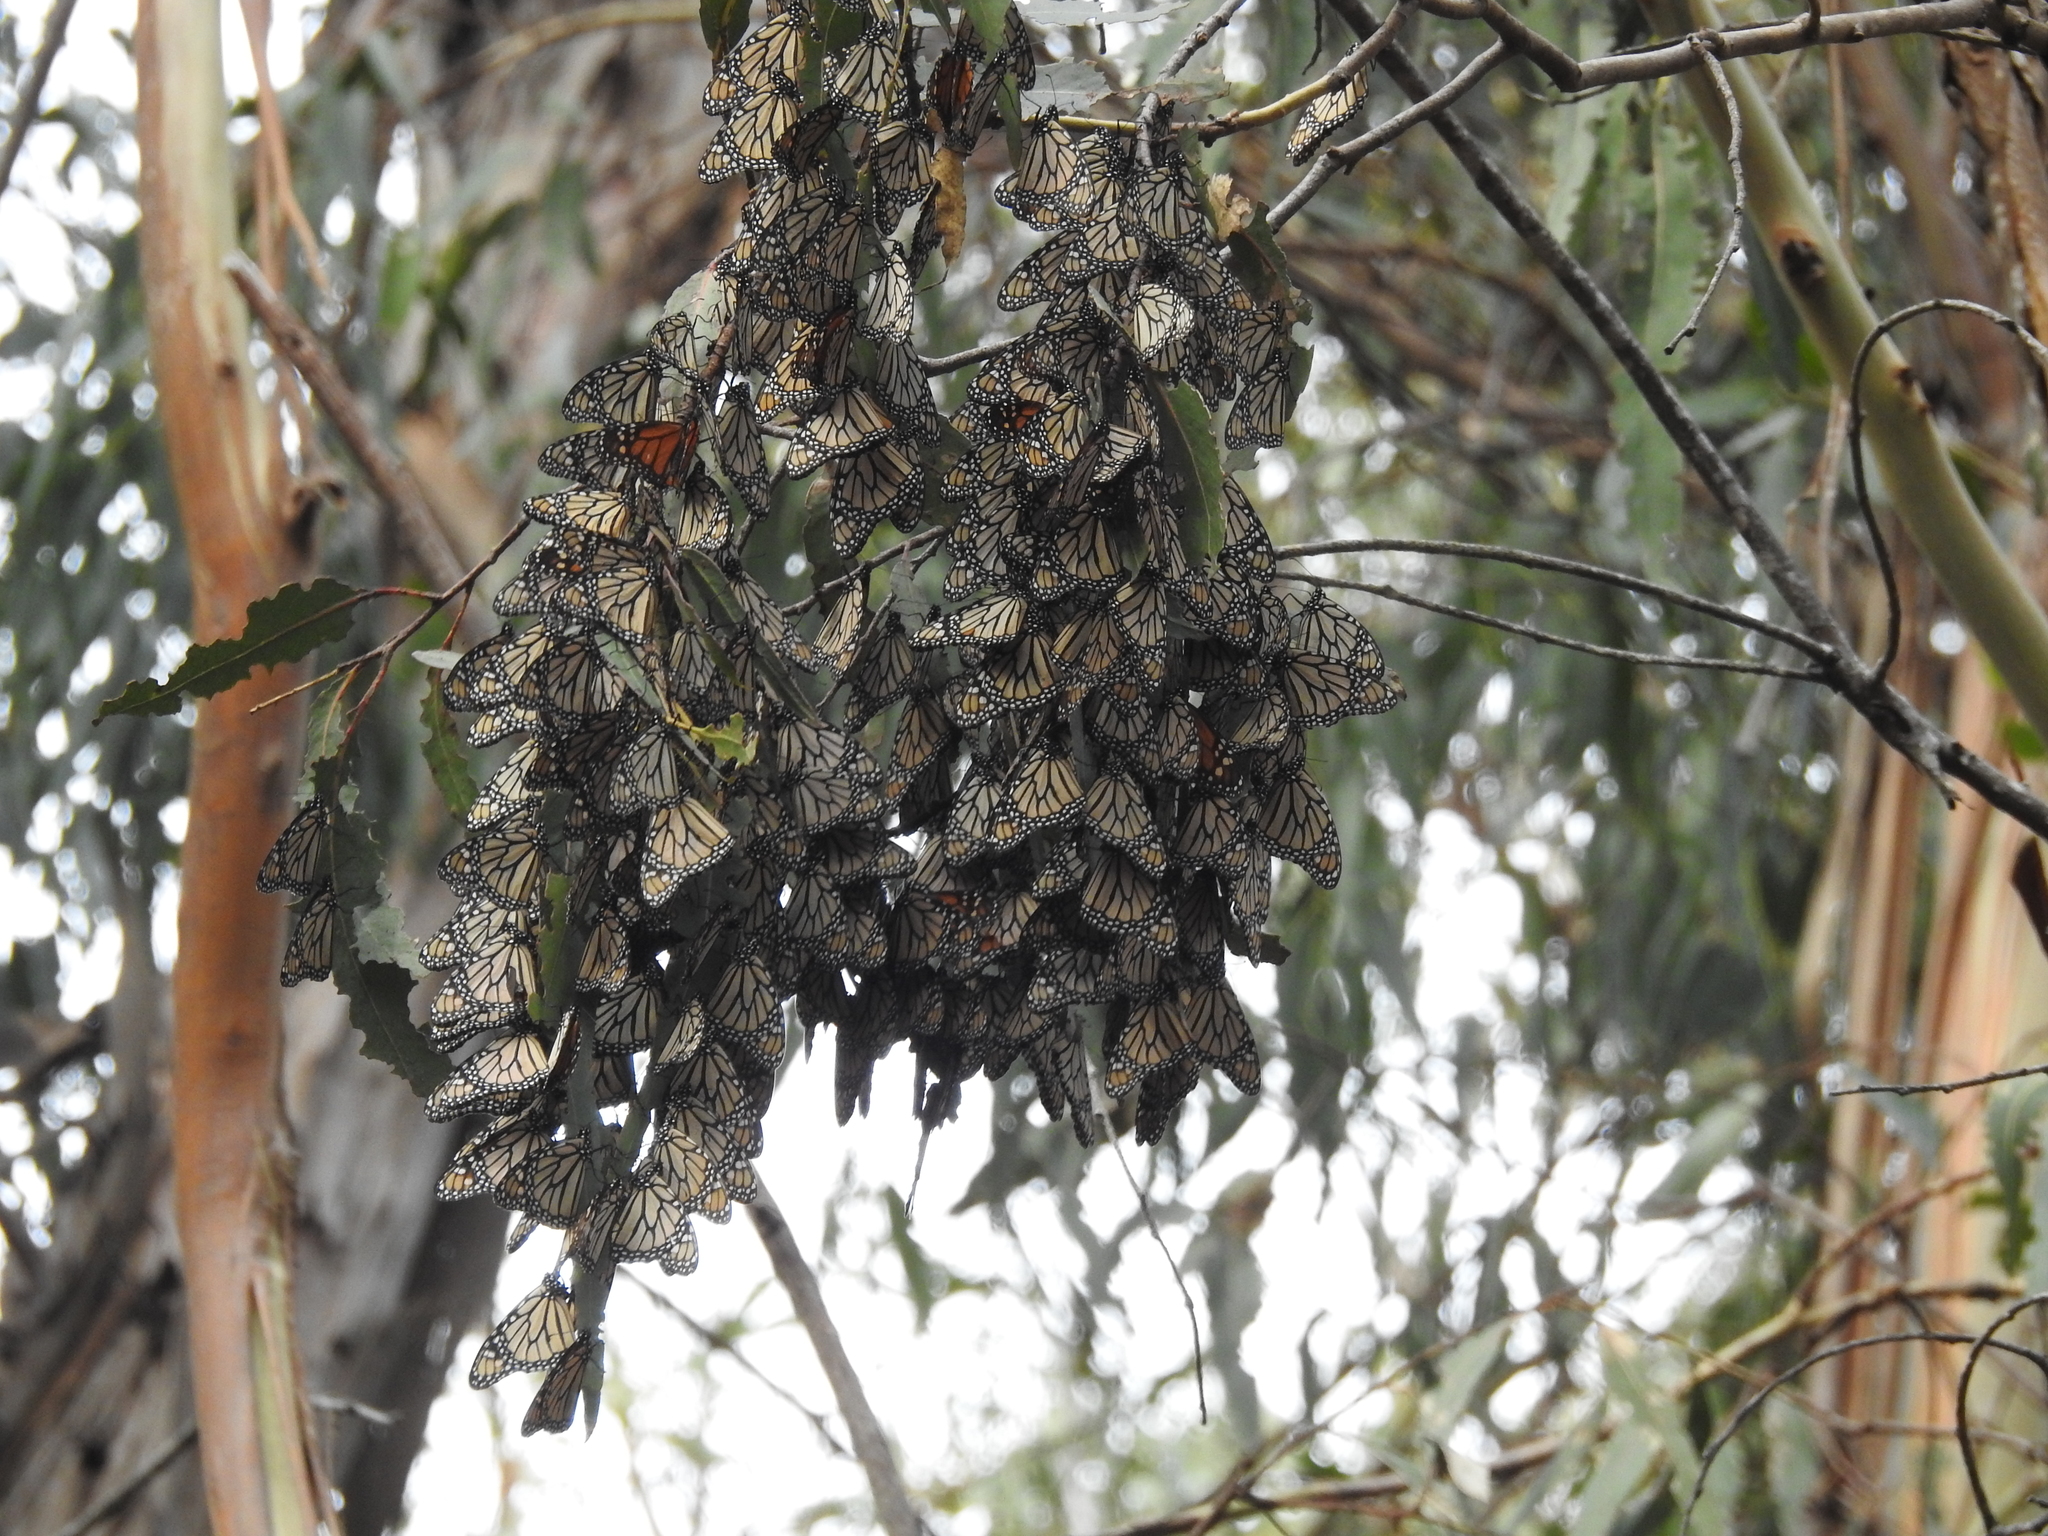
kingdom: Animalia
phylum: Arthropoda
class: Insecta
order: Lepidoptera
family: Nymphalidae
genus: Danaus
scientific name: Danaus plexippus
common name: Monarch
